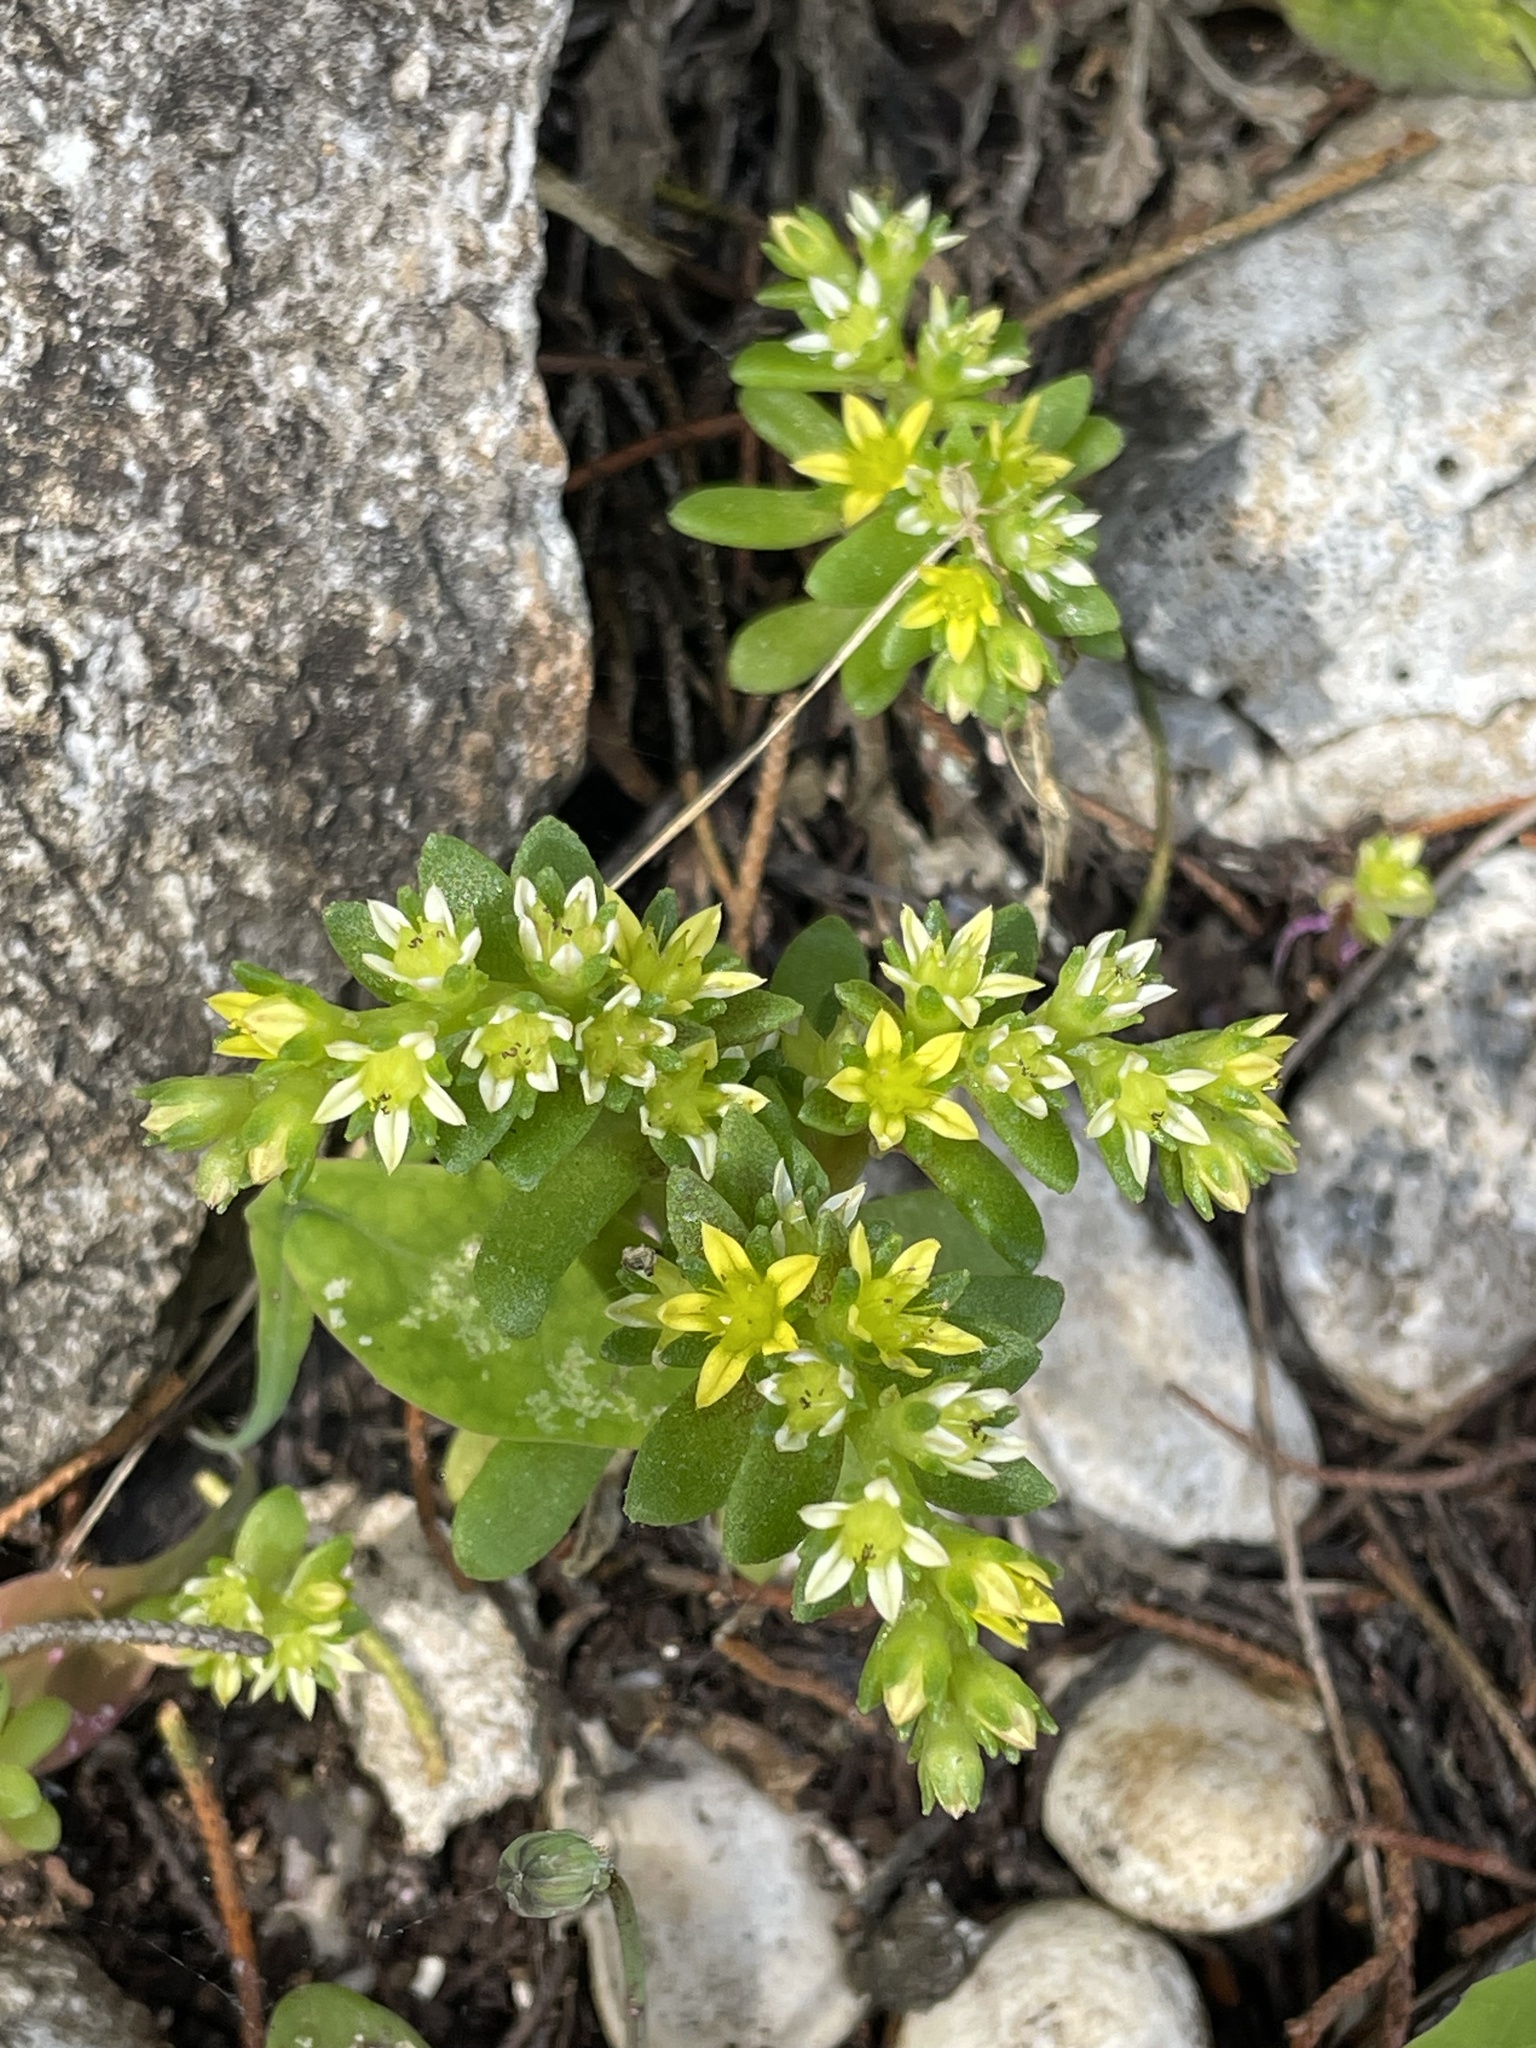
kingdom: Plantae
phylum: Tracheophyta
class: Magnoliopsida
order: Saxifragales
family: Crassulaceae
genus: Sedum
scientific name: Sedum litoreum
